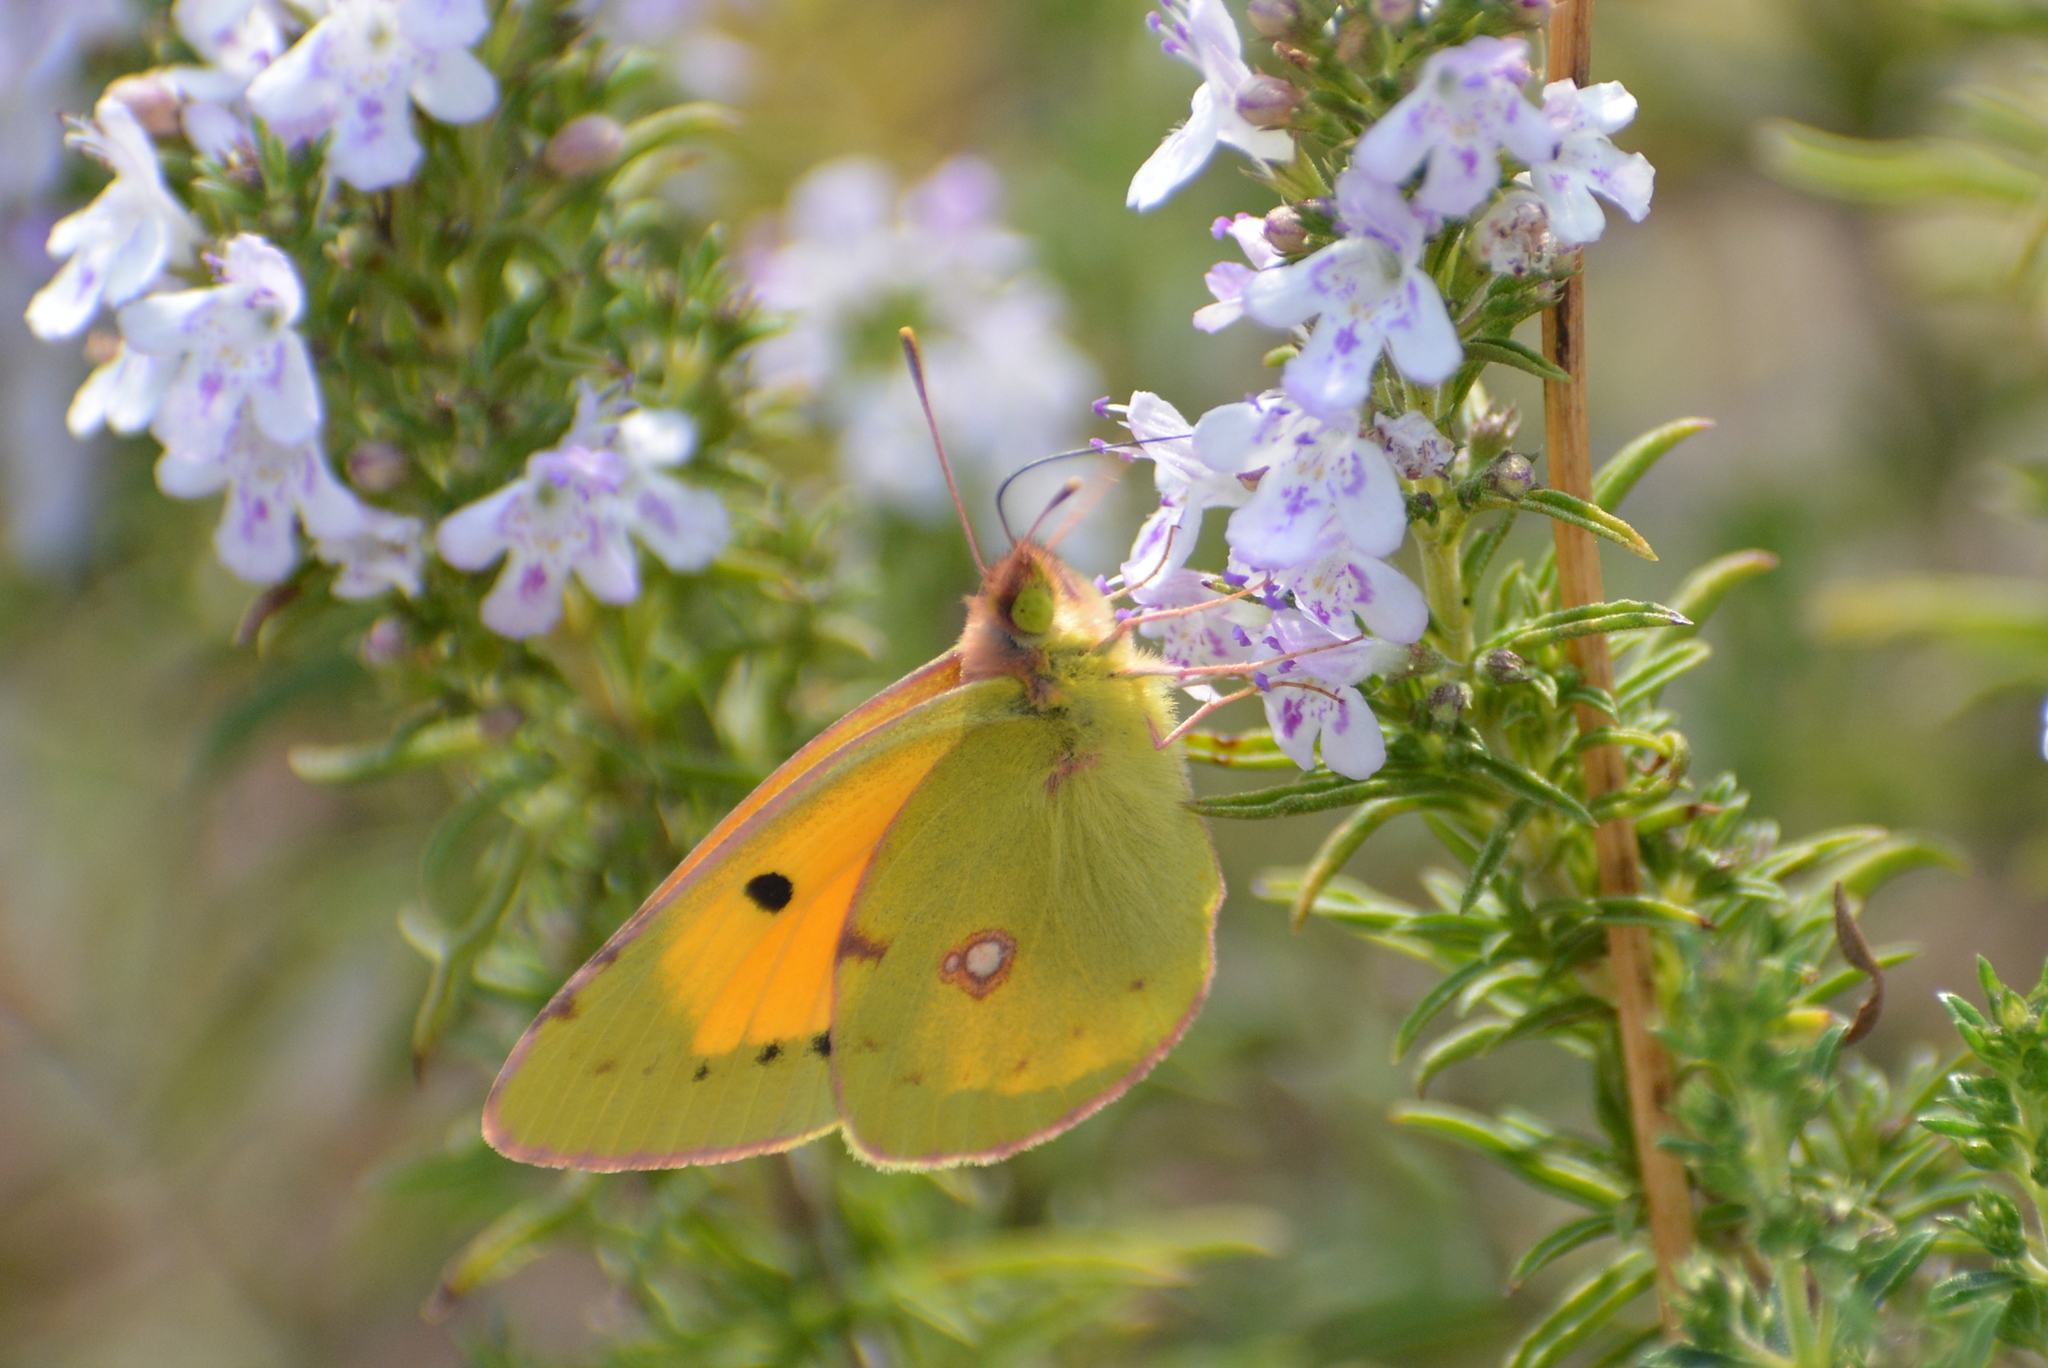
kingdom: Animalia
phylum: Arthropoda
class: Insecta
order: Lepidoptera
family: Pieridae
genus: Colias
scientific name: Colias croceus
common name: Clouded yellow
